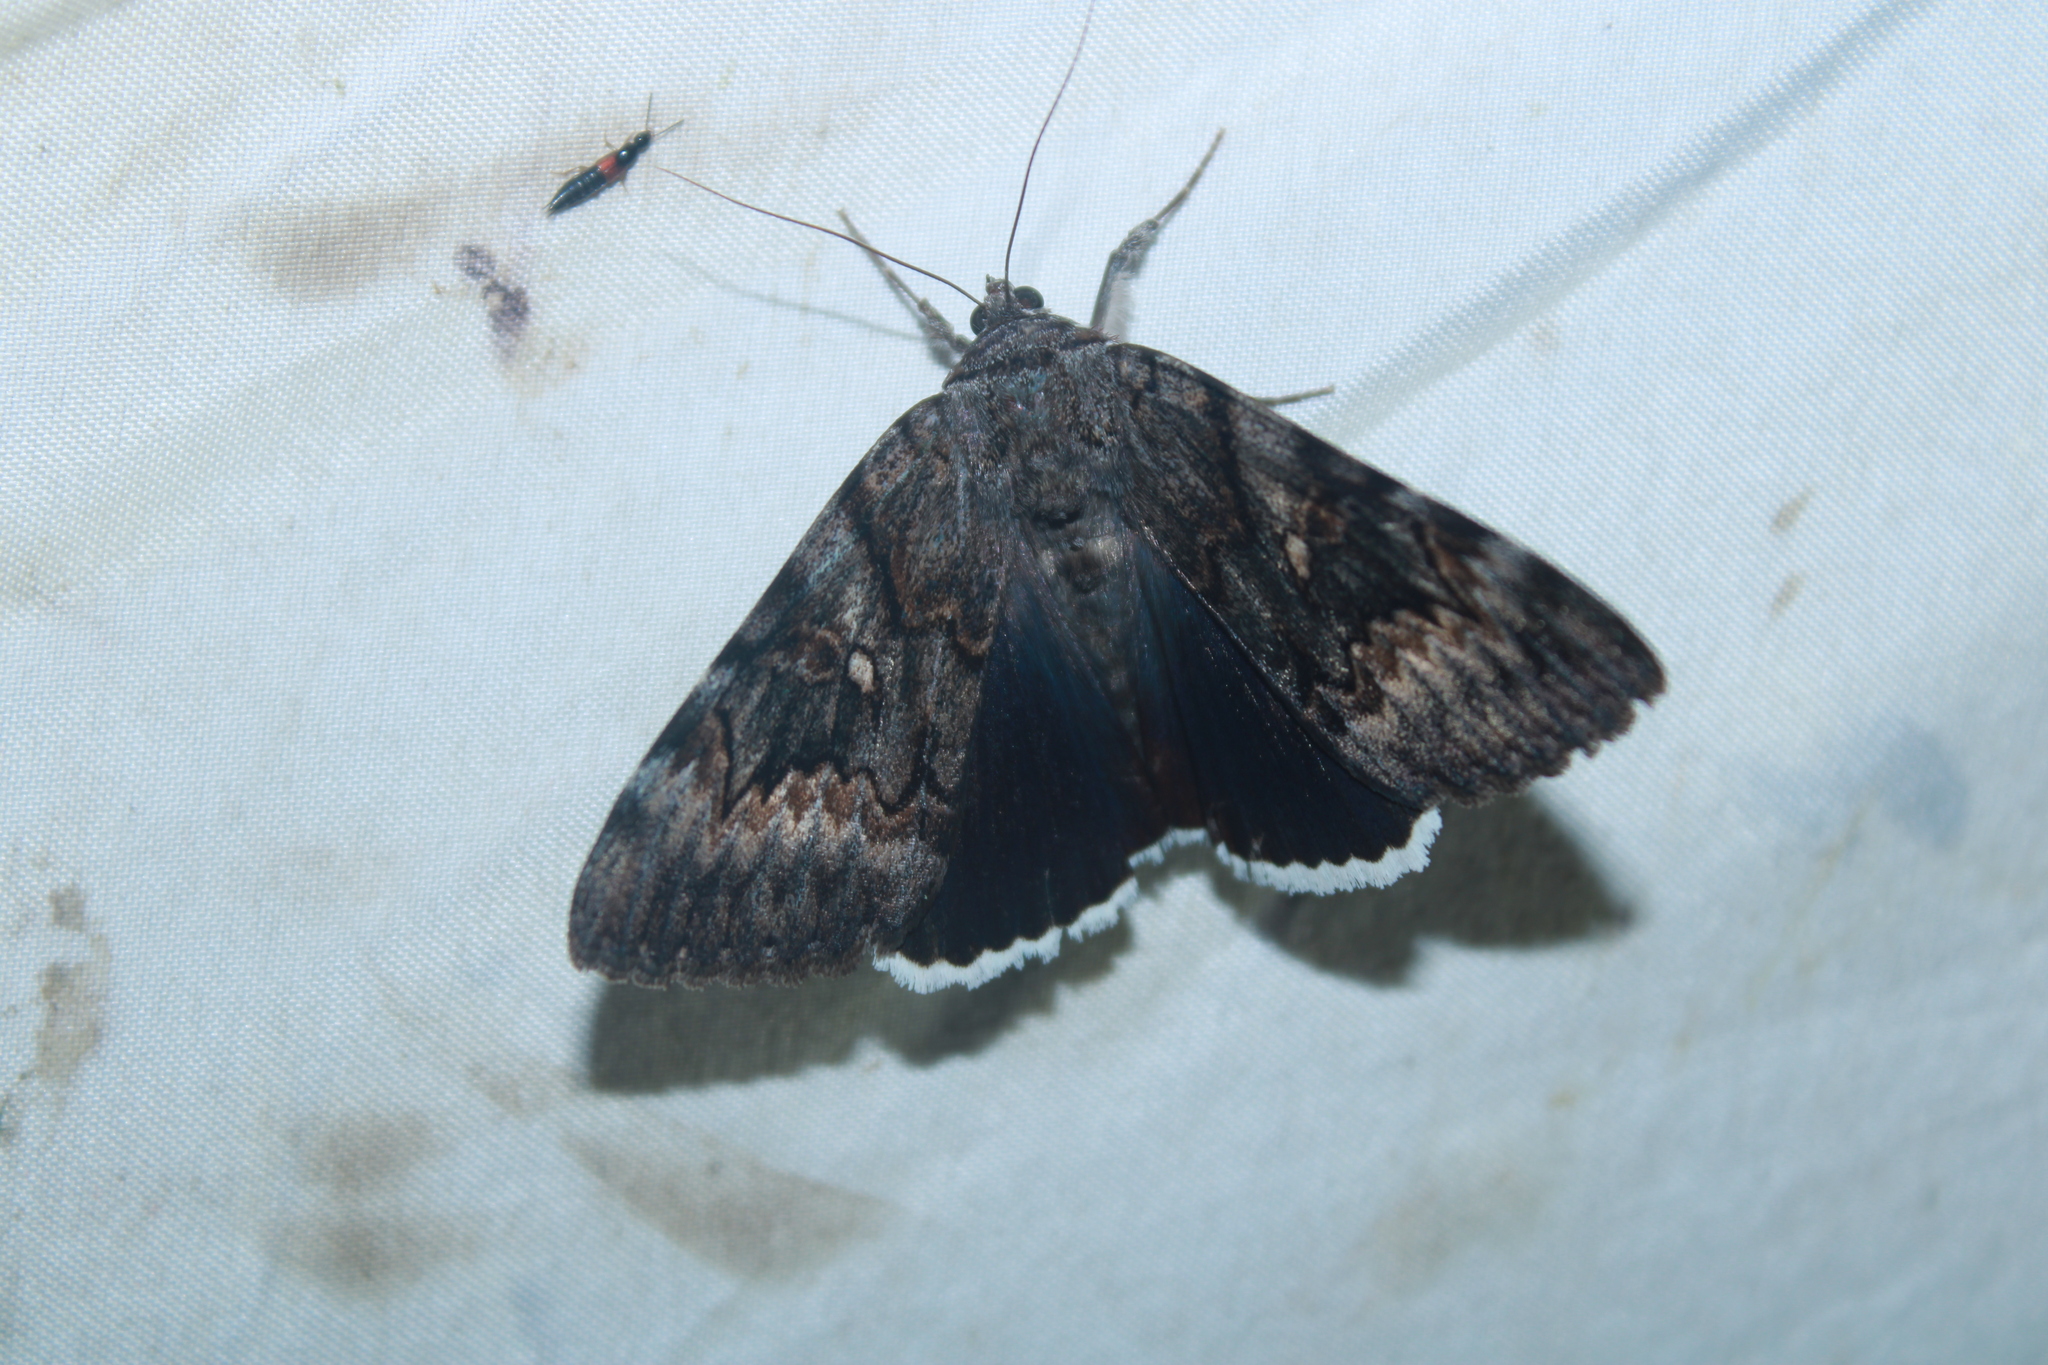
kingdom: Animalia
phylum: Arthropoda
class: Insecta
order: Lepidoptera
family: Erebidae
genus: Catocala
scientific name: Catocala epione
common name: Epione underwing
